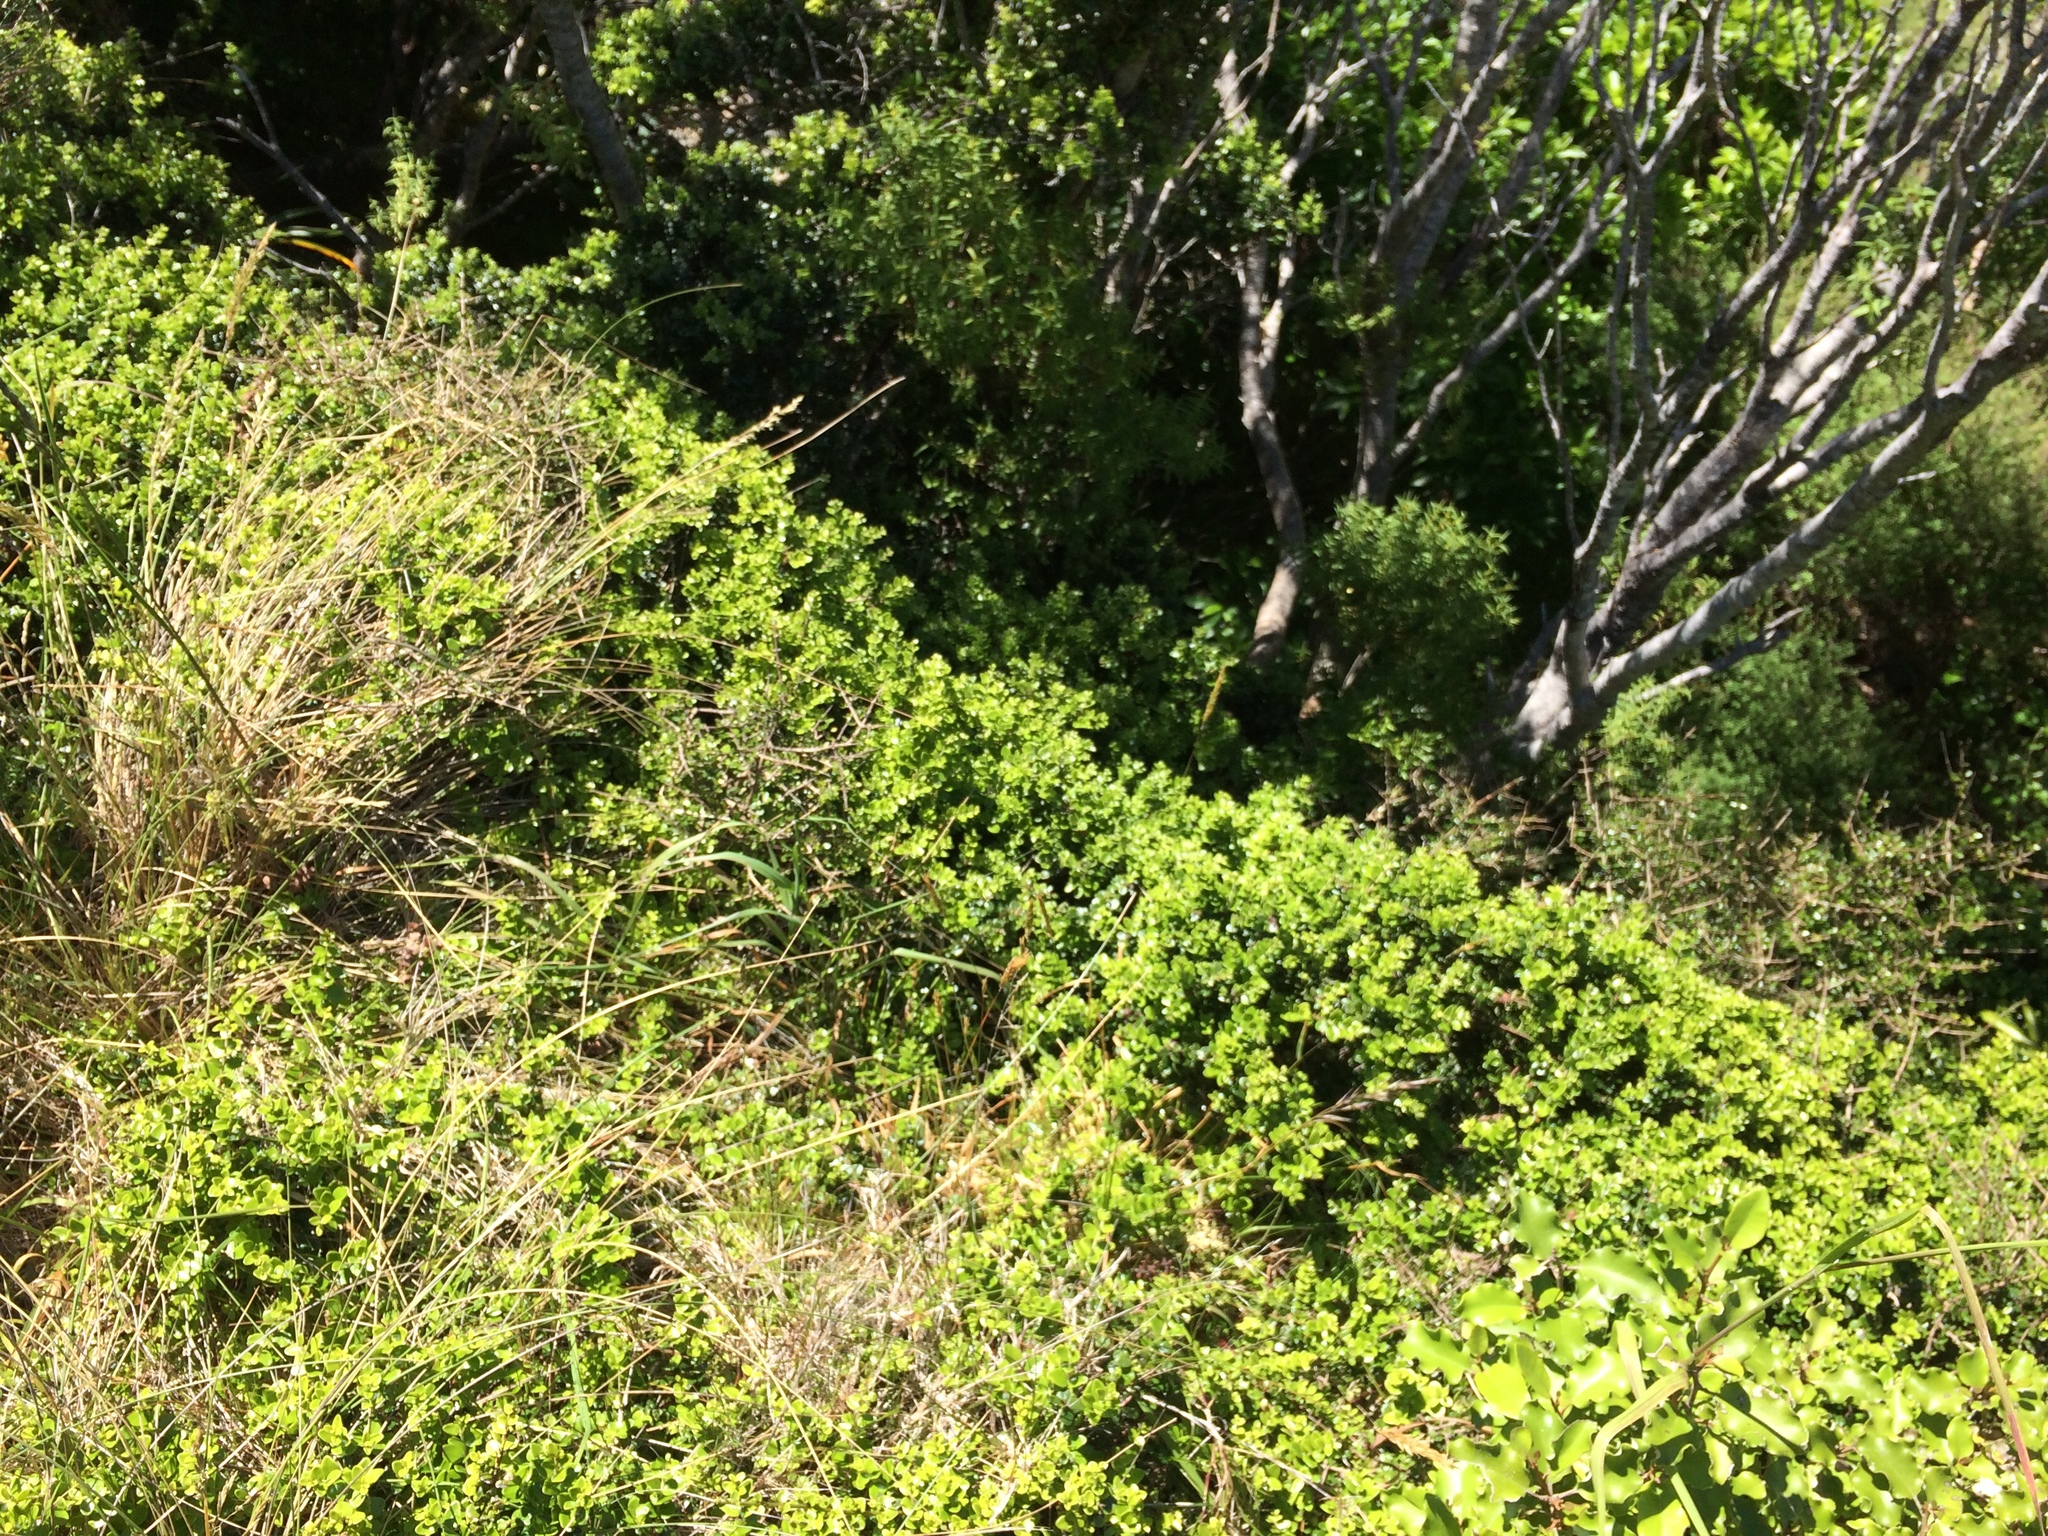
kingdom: Plantae
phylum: Tracheophyta
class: Magnoliopsida
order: Myrtales
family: Myrtaceae
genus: Metrosideros
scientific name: Metrosideros perforata
